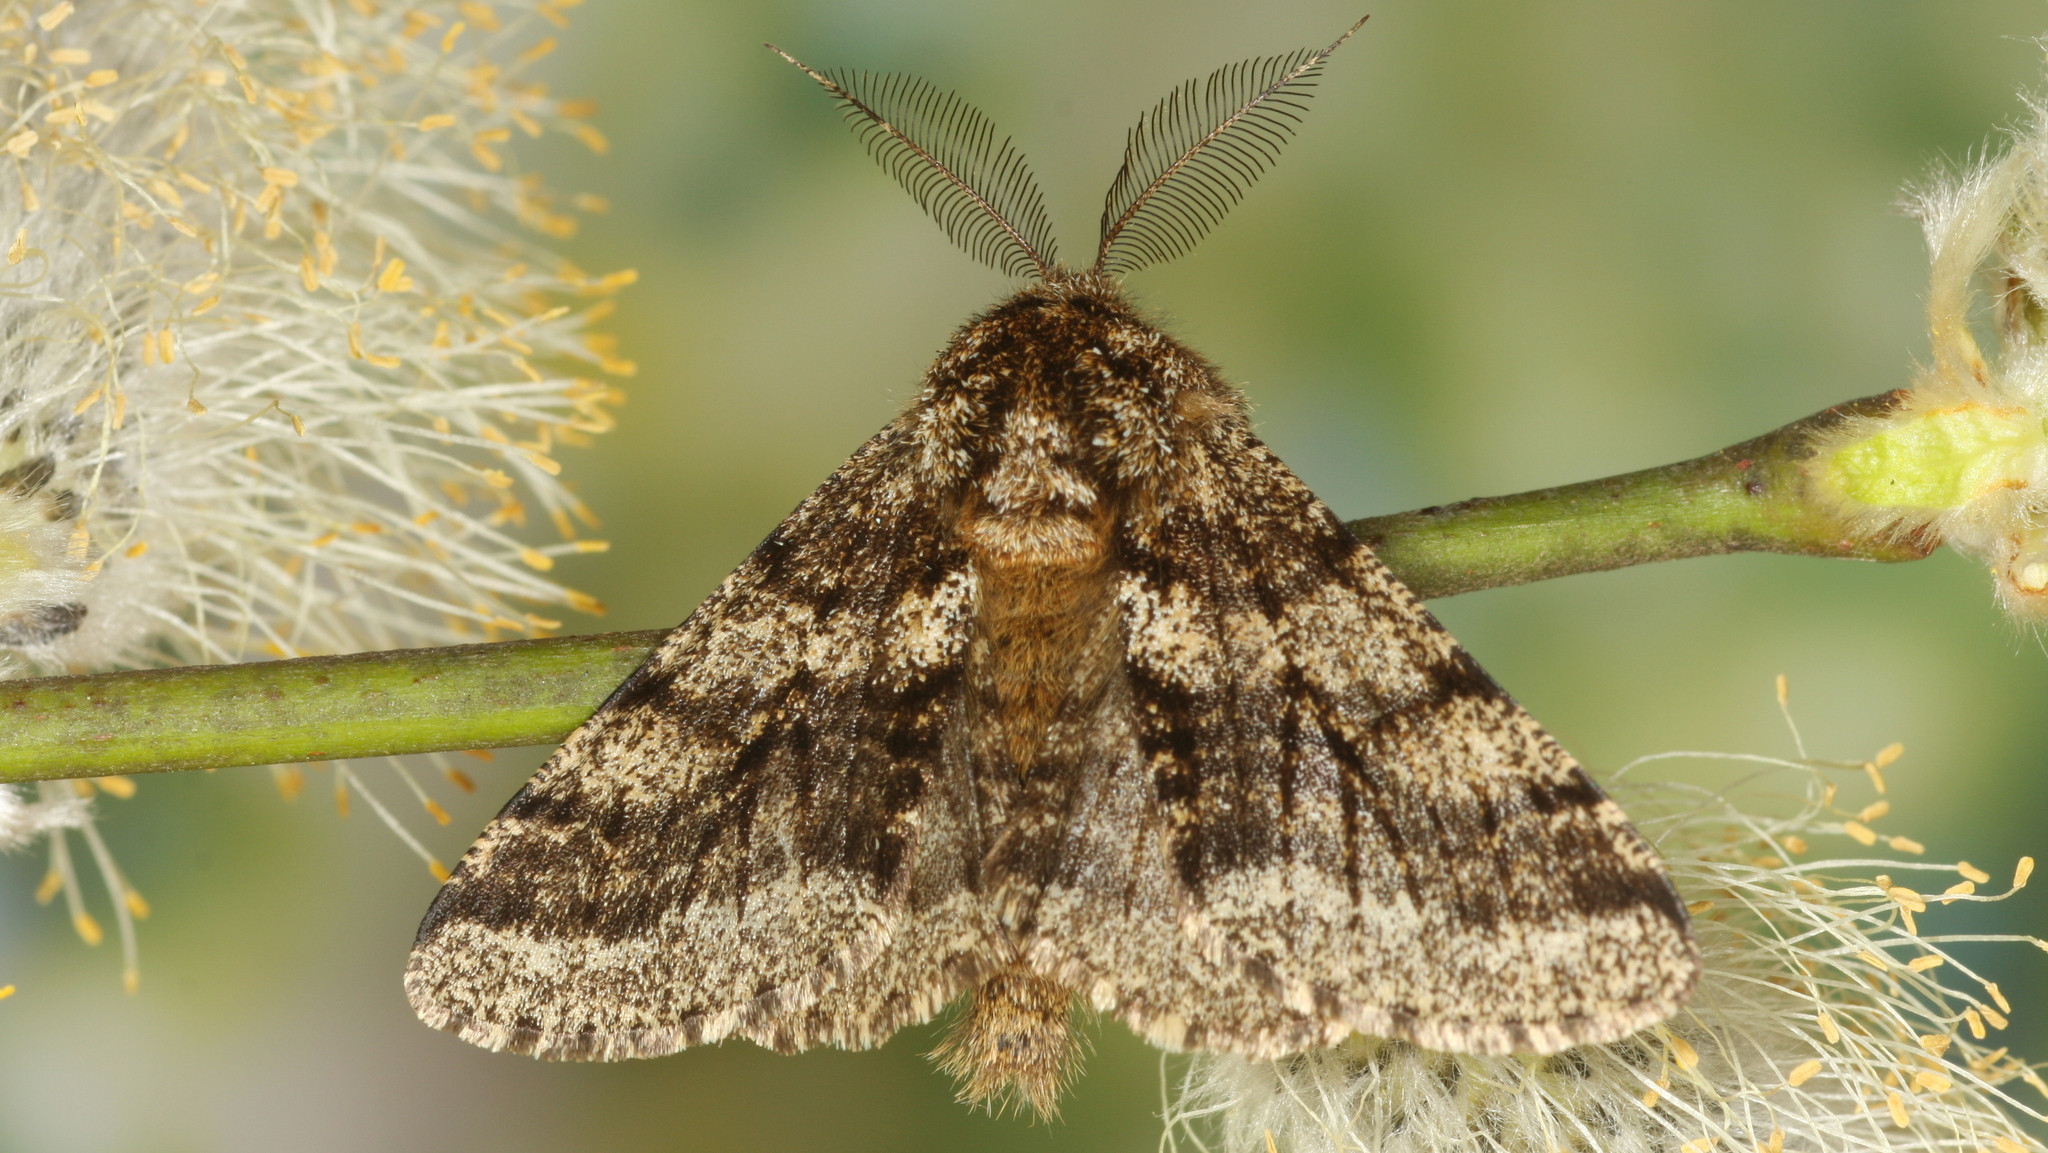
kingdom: Animalia
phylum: Arthropoda
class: Insecta
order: Lepidoptera
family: Geometridae
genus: Lycia
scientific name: Lycia hirtaria
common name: Brindled beauty
